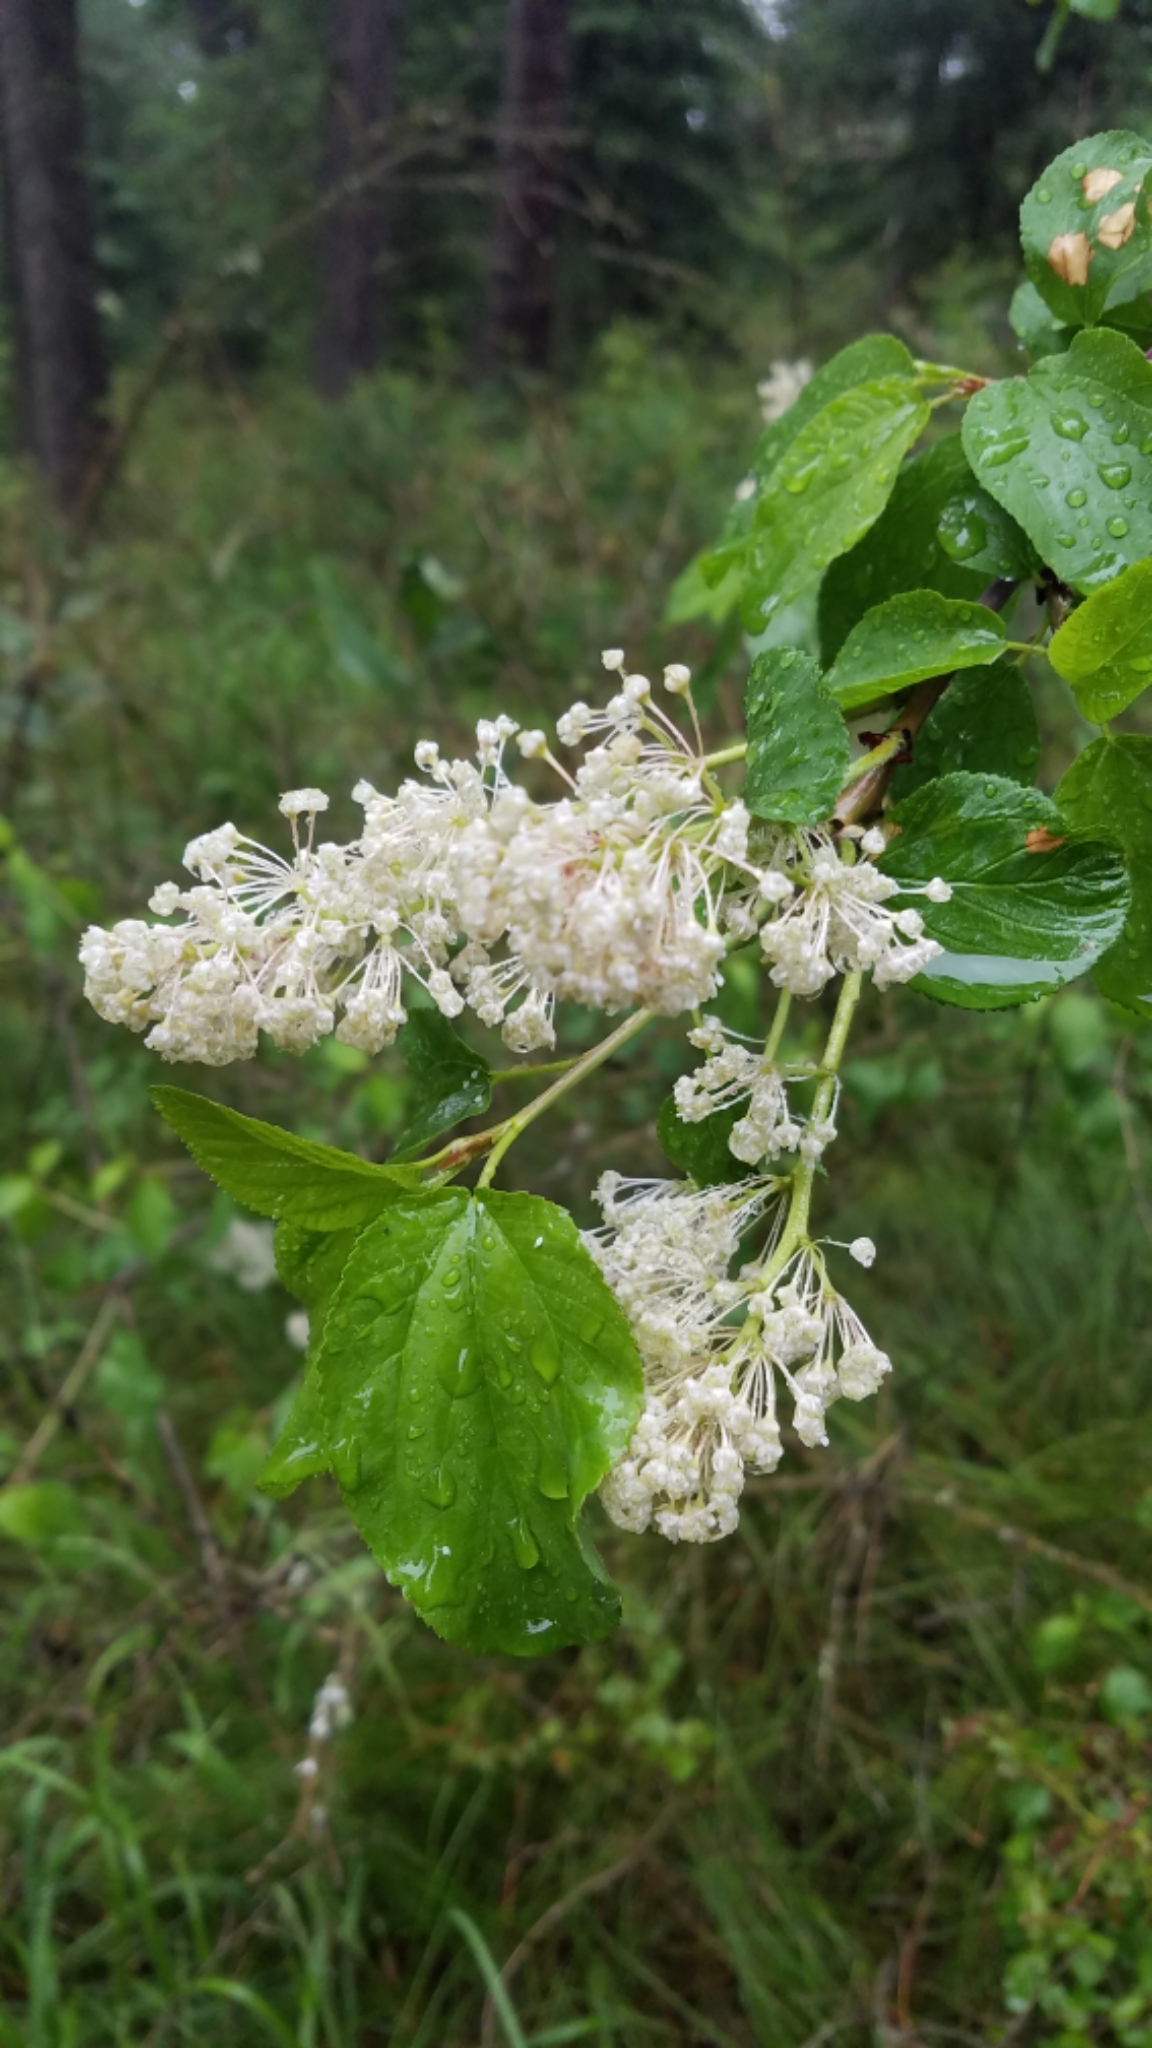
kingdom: Plantae
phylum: Tracheophyta
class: Magnoliopsida
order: Rosales
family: Rhamnaceae
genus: Ceanothus
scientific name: Ceanothus sanguineus
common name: Teatree
